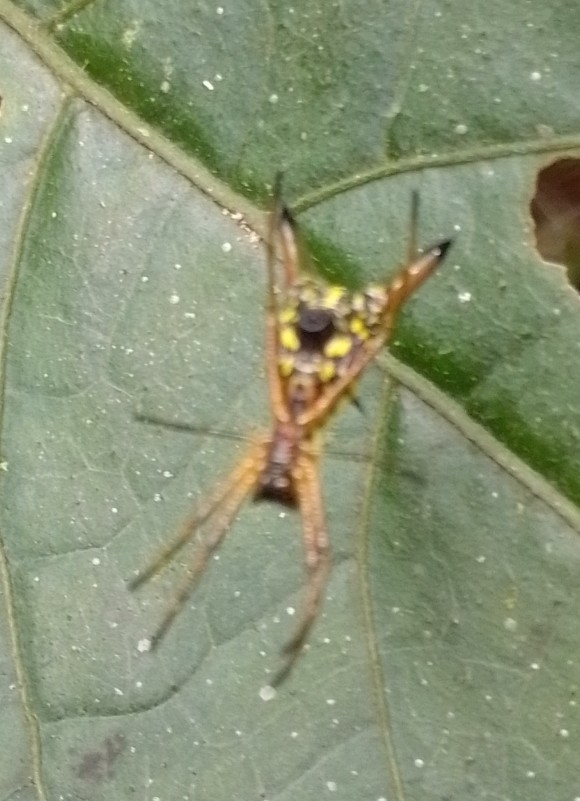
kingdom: Animalia
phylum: Arthropoda
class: Arachnida
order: Araneae
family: Araneidae
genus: Micrathena
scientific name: Micrathena brevipes
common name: Orb weavers
